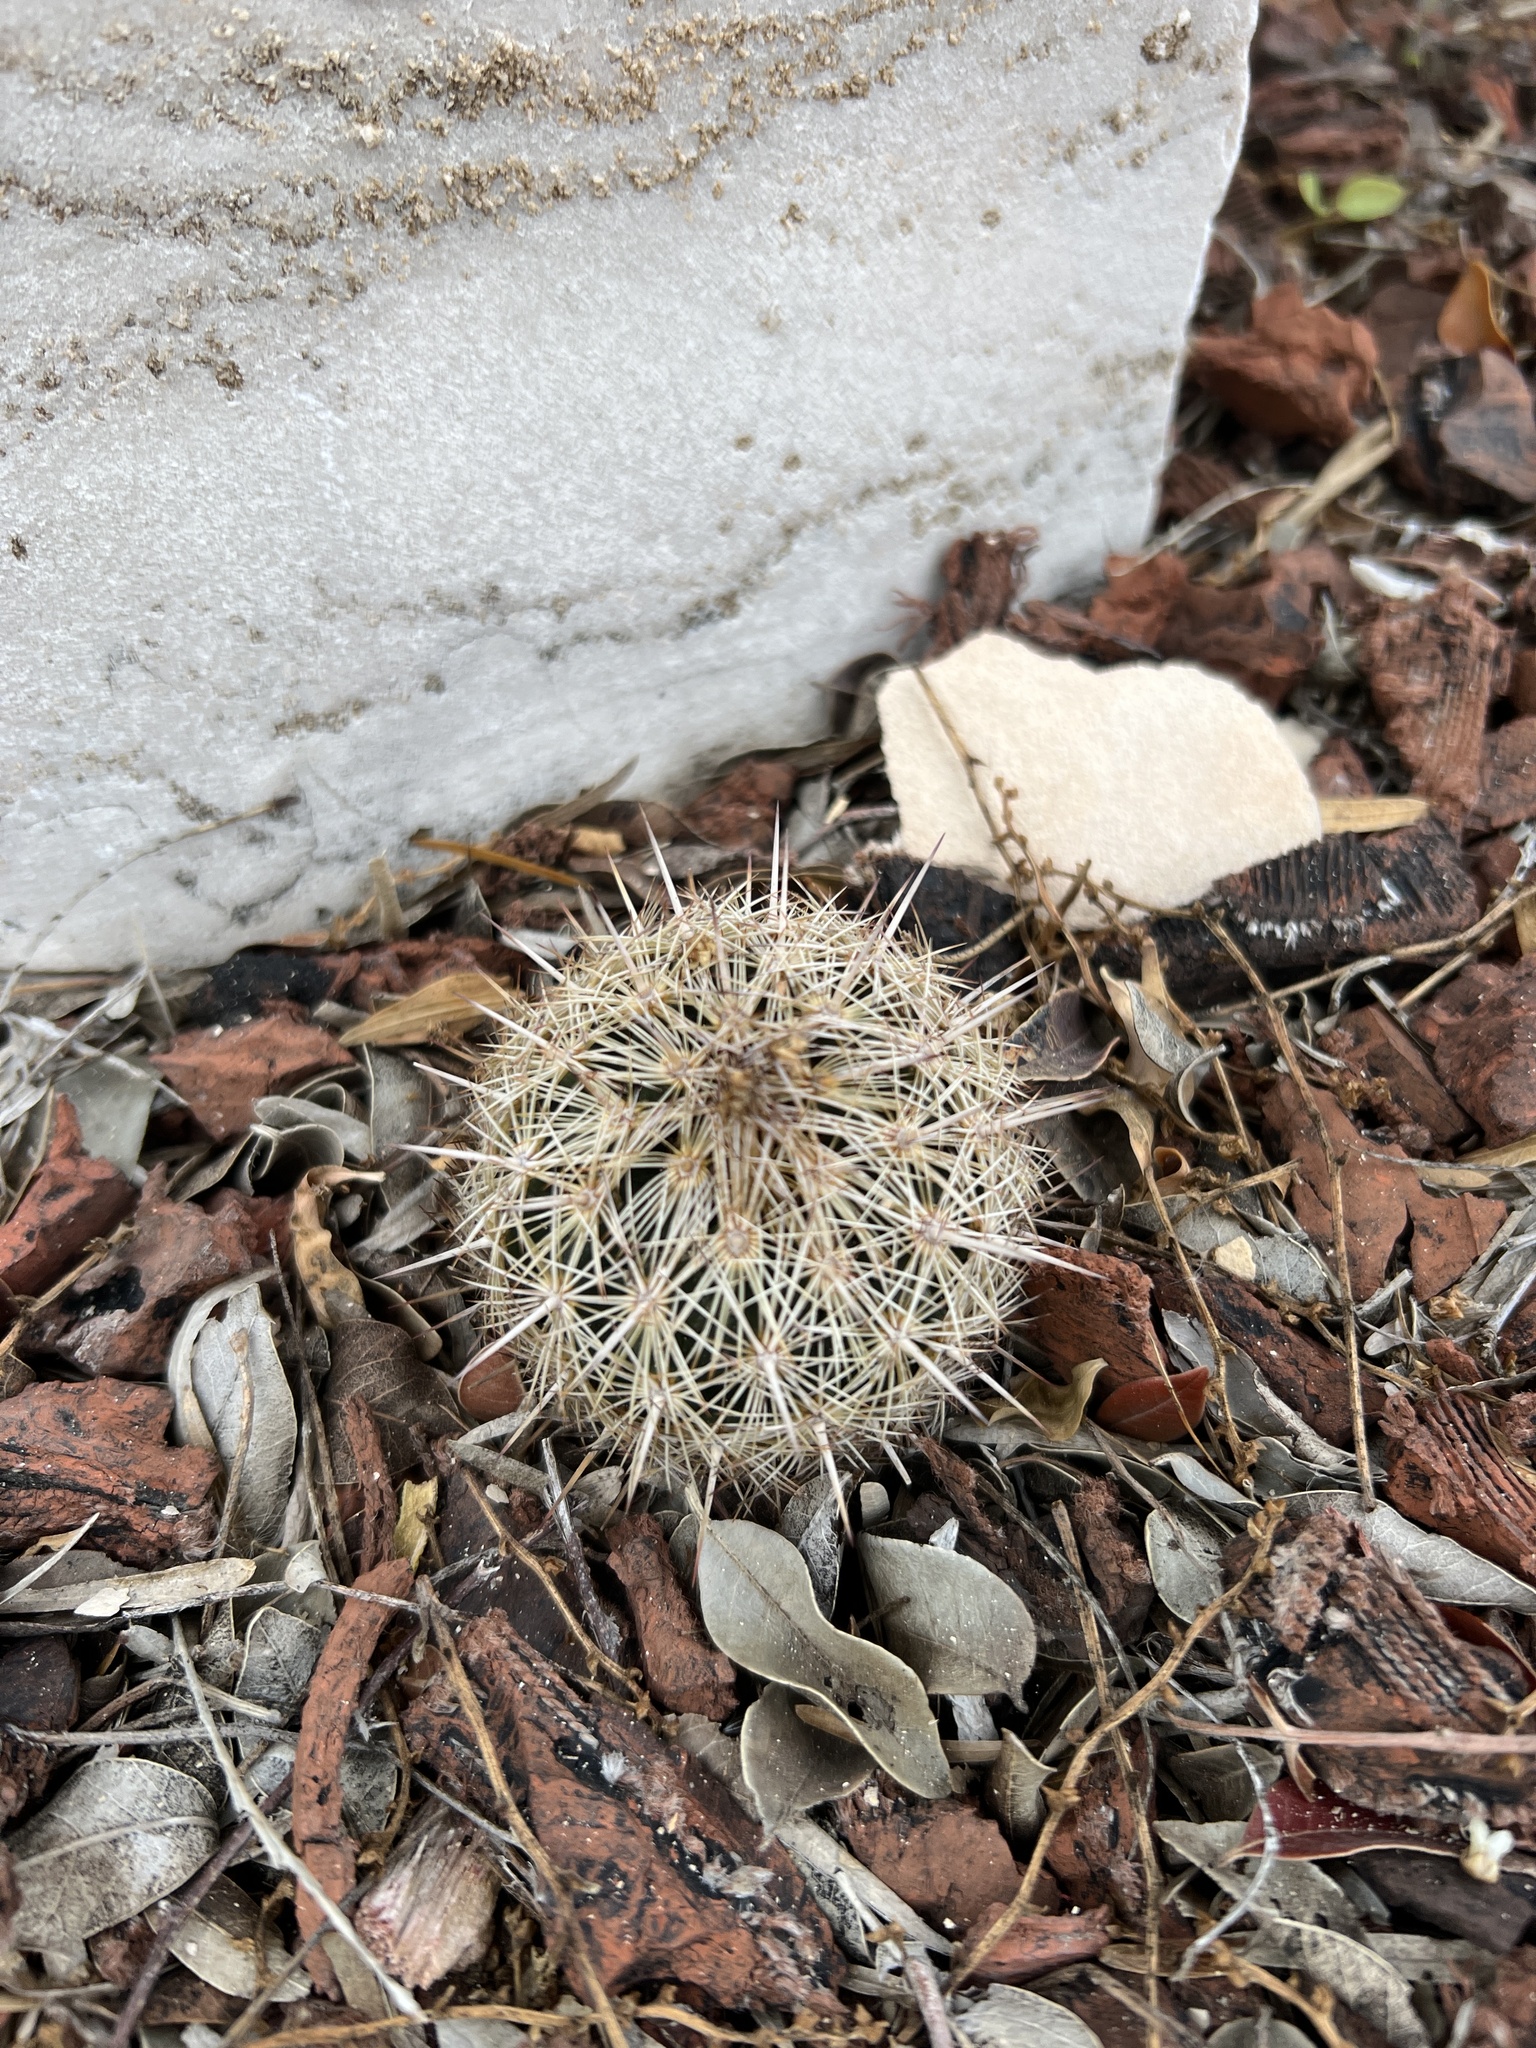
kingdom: Plantae
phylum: Tracheophyta
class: Magnoliopsida
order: Caryophyllales
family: Cactaceae
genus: Coryphantha
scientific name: Coryphantha echinus
